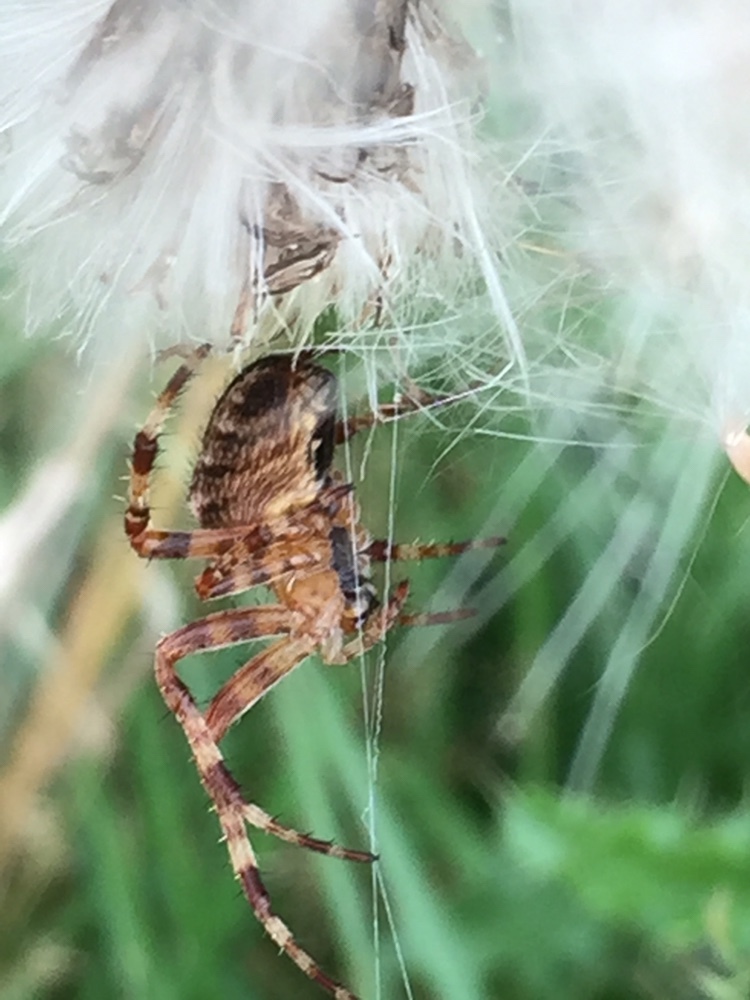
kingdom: Animalia
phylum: Arthropoda
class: Arachnida
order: Araneae
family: Araneidae
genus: Araneus
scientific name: Araneus diadematus
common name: Cross orbweaver
